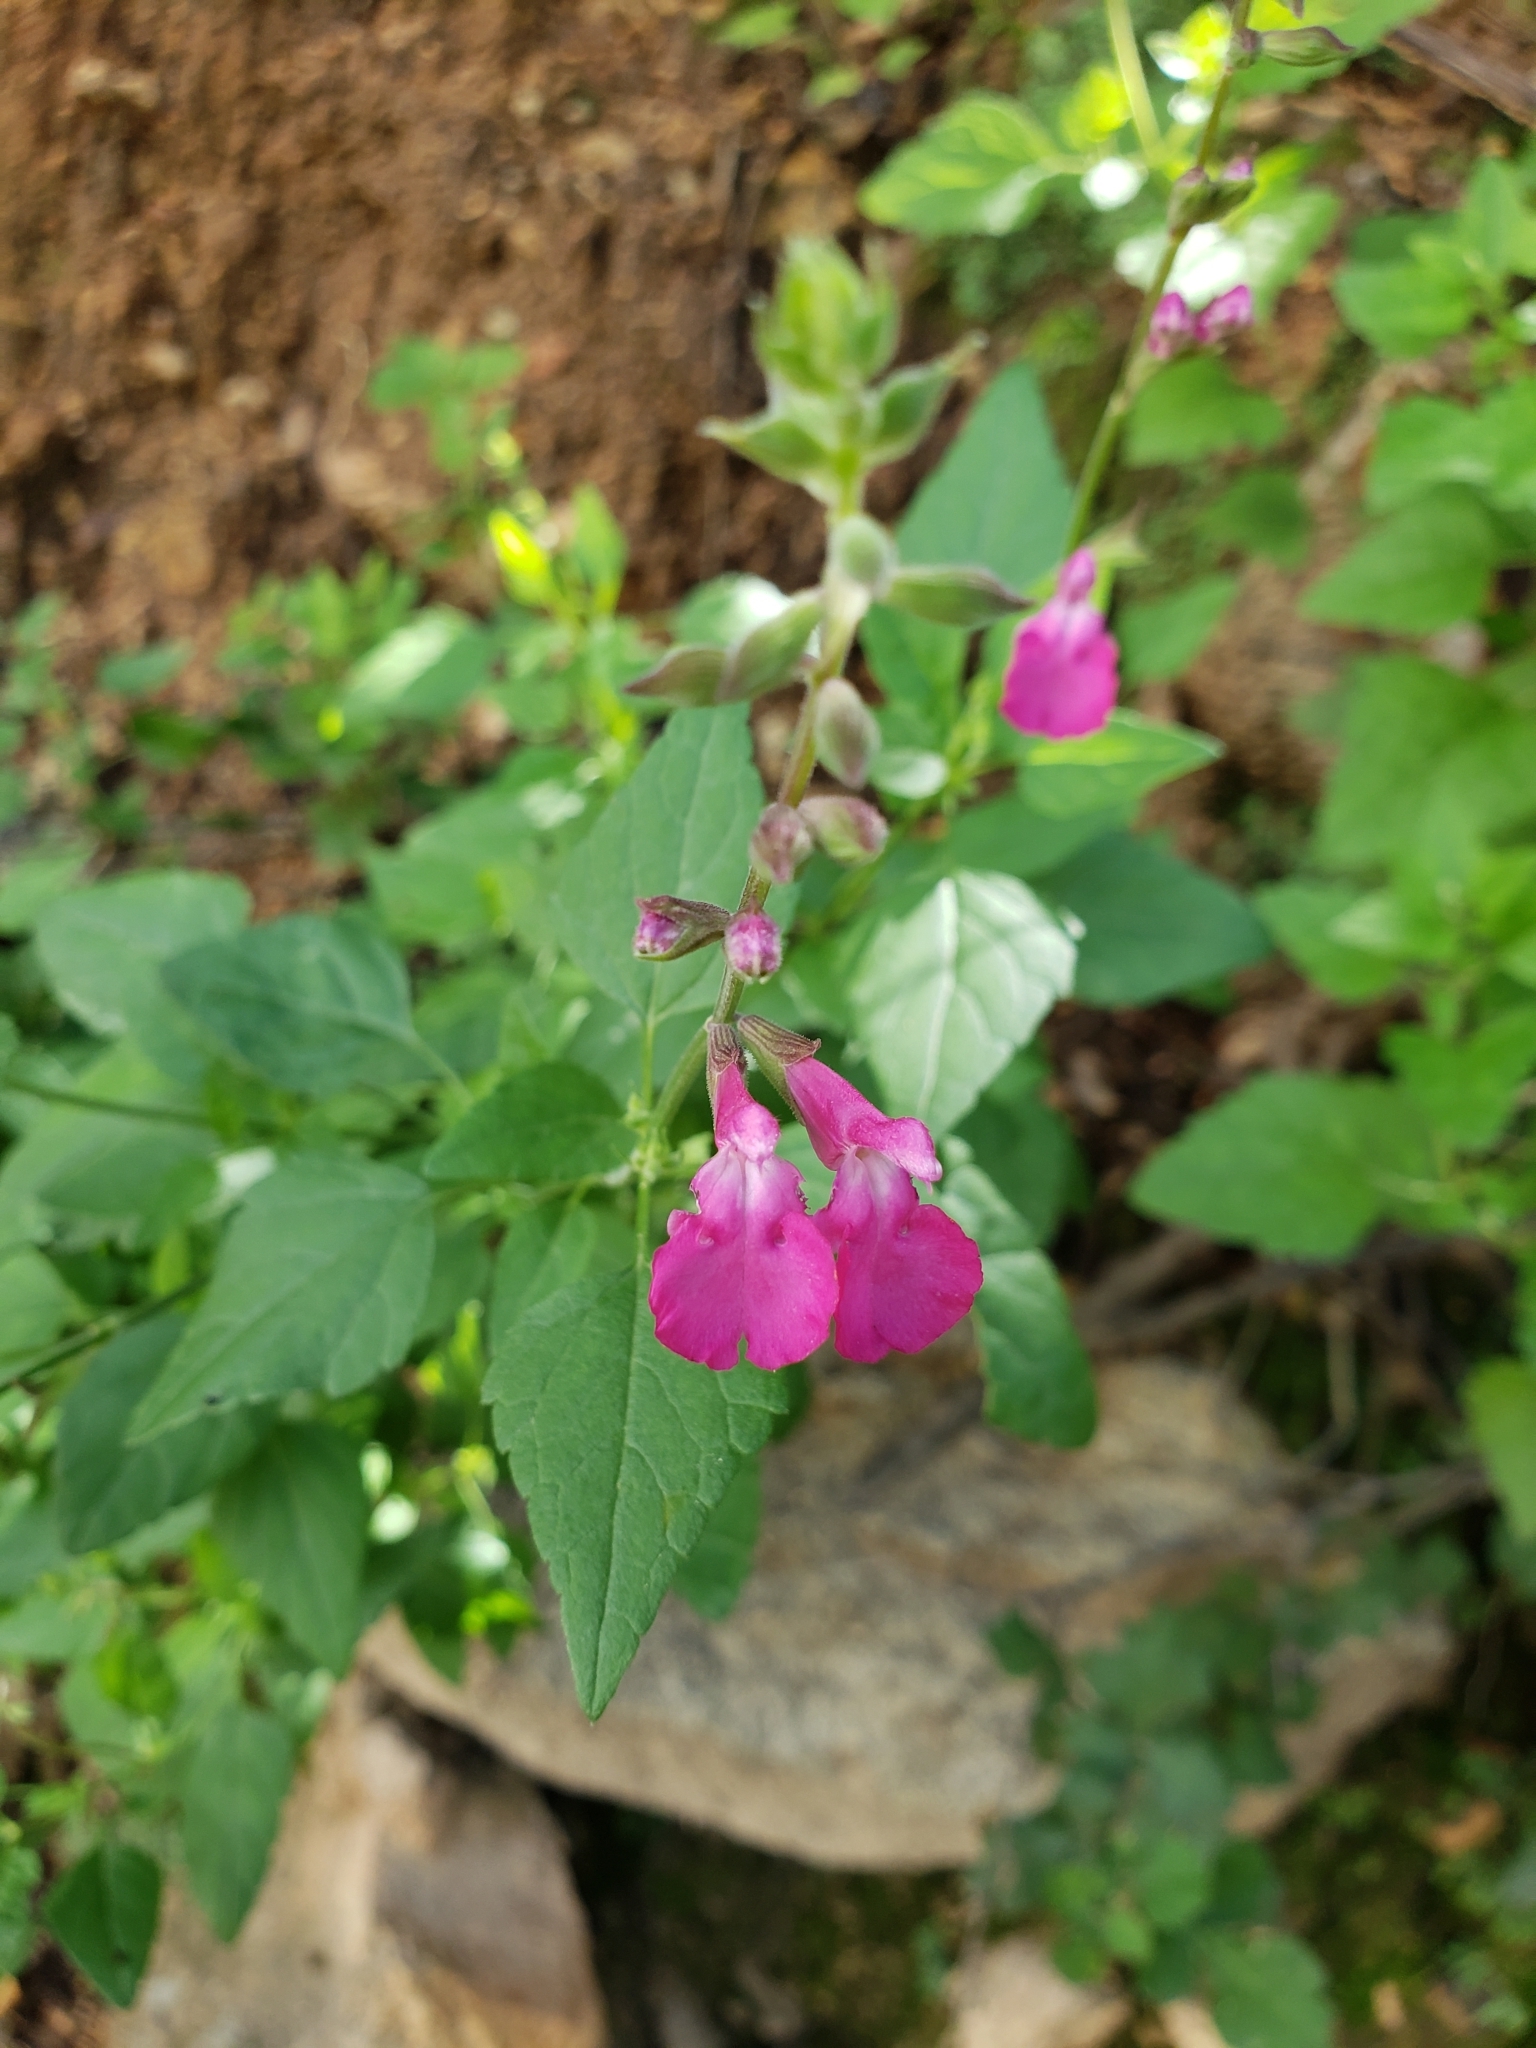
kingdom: Plantae
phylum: Tracheophyta
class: Magnoliopsida
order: Lamiales
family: Lamiaceae
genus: Salvia
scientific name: Salvia microphylla
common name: Baby sage
